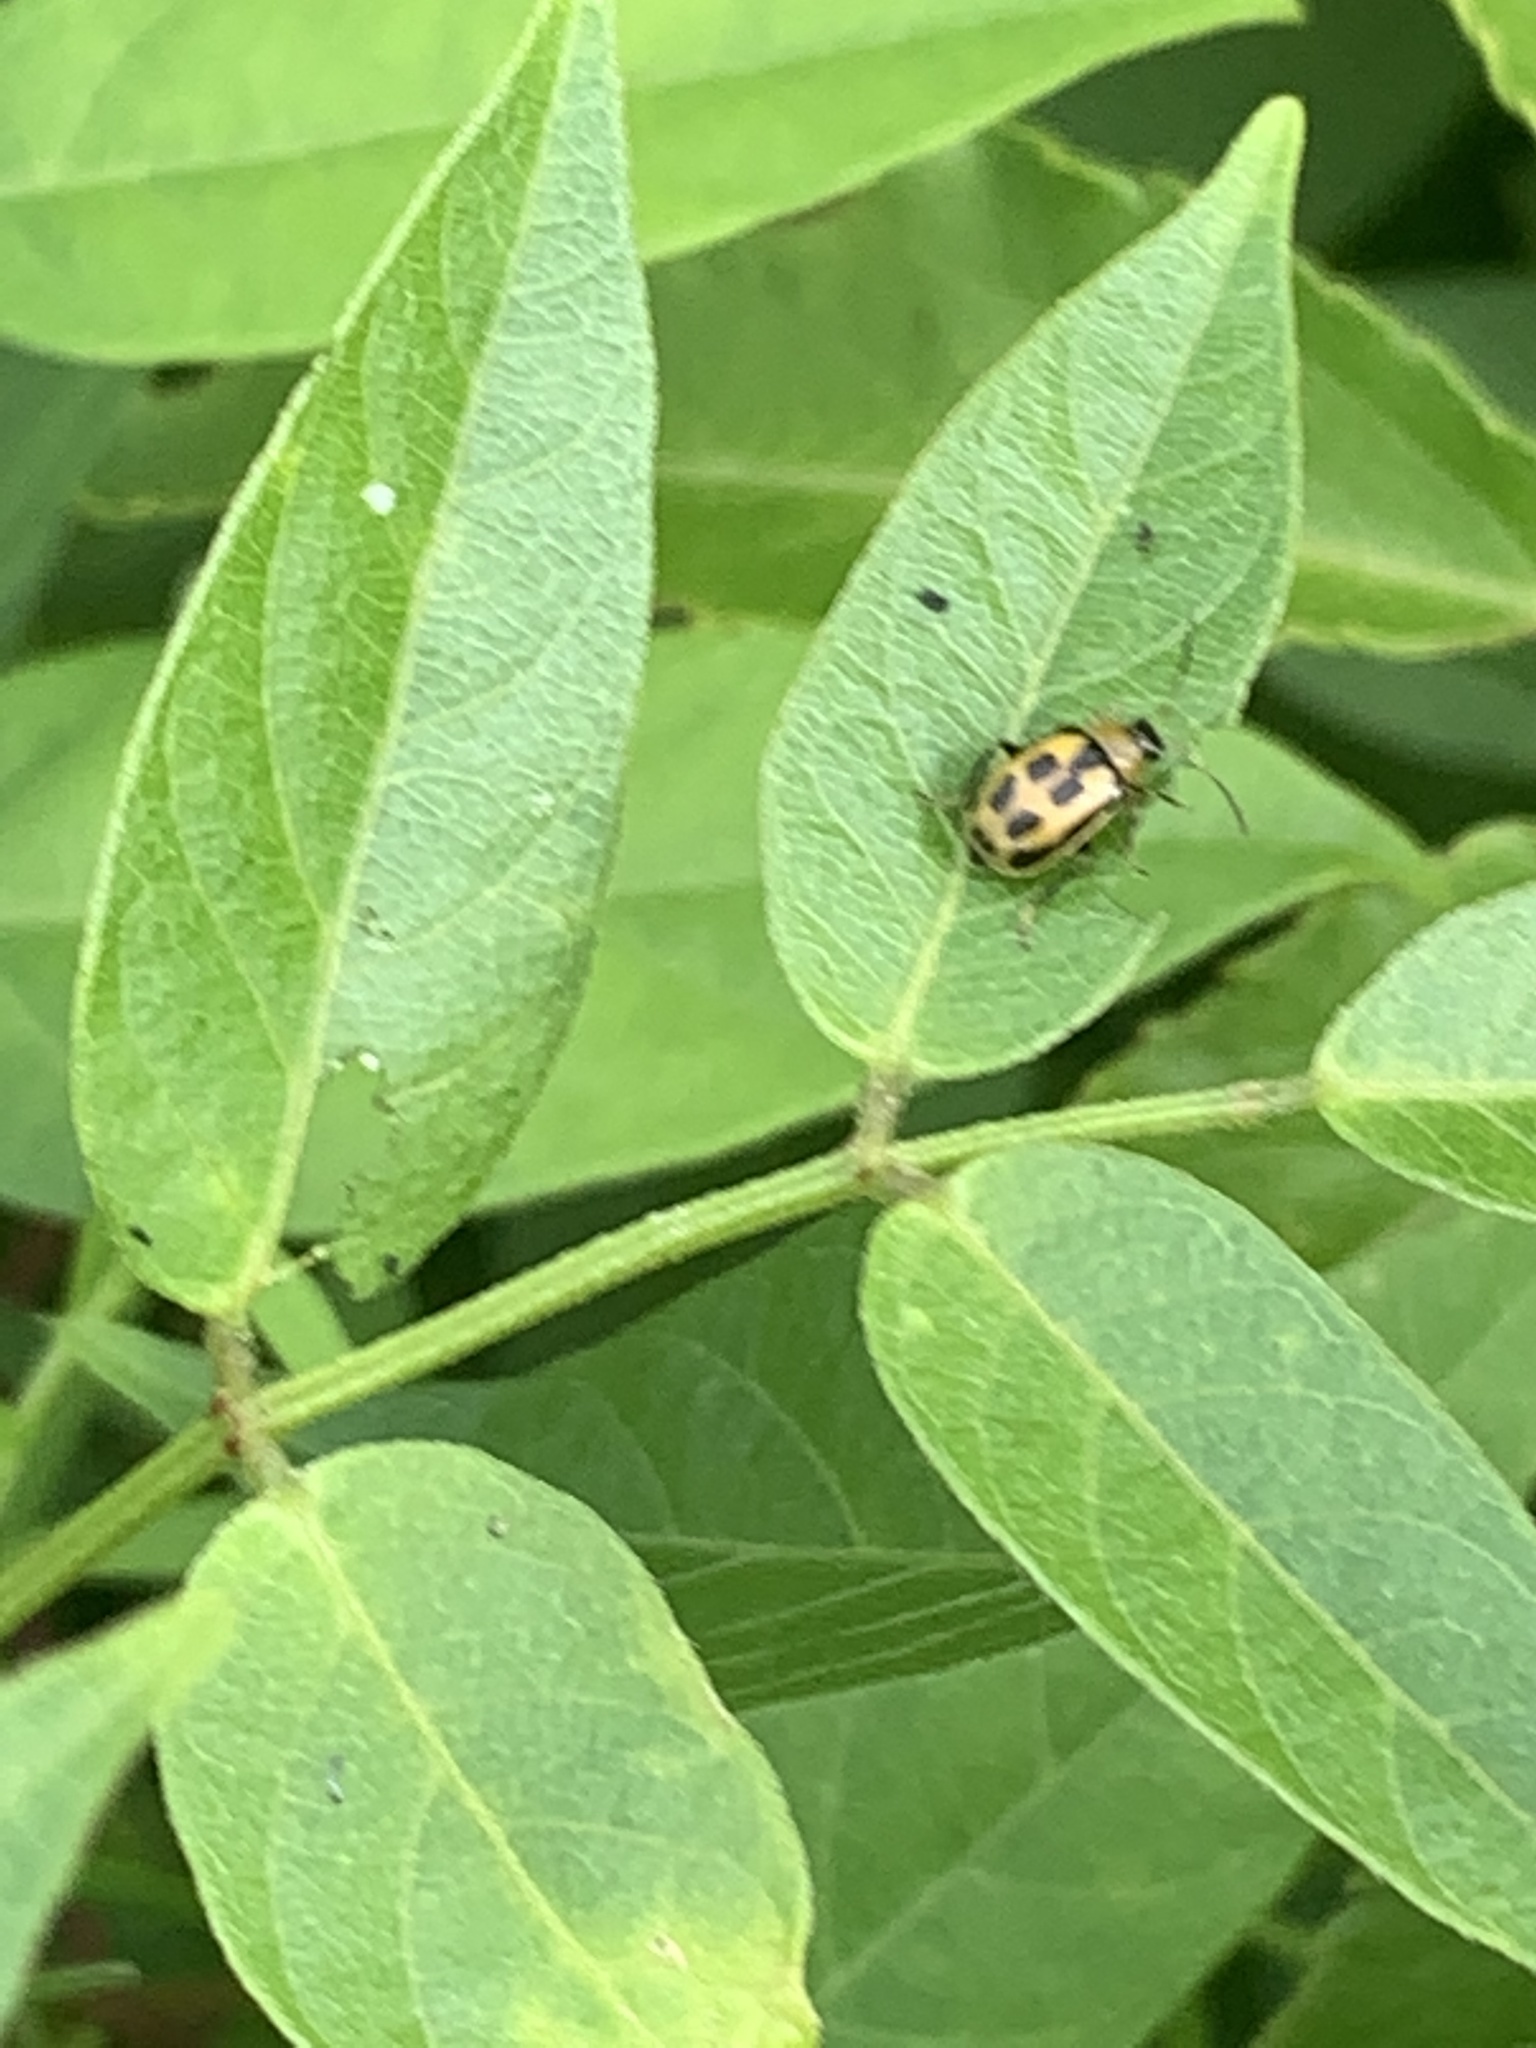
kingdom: Animalia
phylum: Arthropoda
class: Insecta
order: Coleoptera
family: Chrysomelidae
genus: Cerotoma
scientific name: Cerotoma trifurcata
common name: Bean leaf beetle
